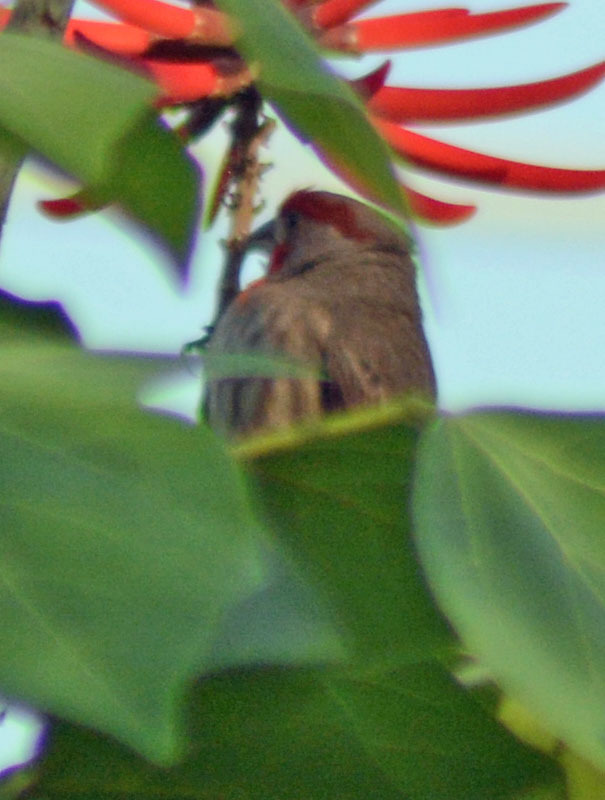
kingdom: Animalia
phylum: Chordata
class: Aves
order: Passeriformes
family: Fringillidae
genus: Haemorhous
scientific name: Haemorhous mexicanus
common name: House finch
